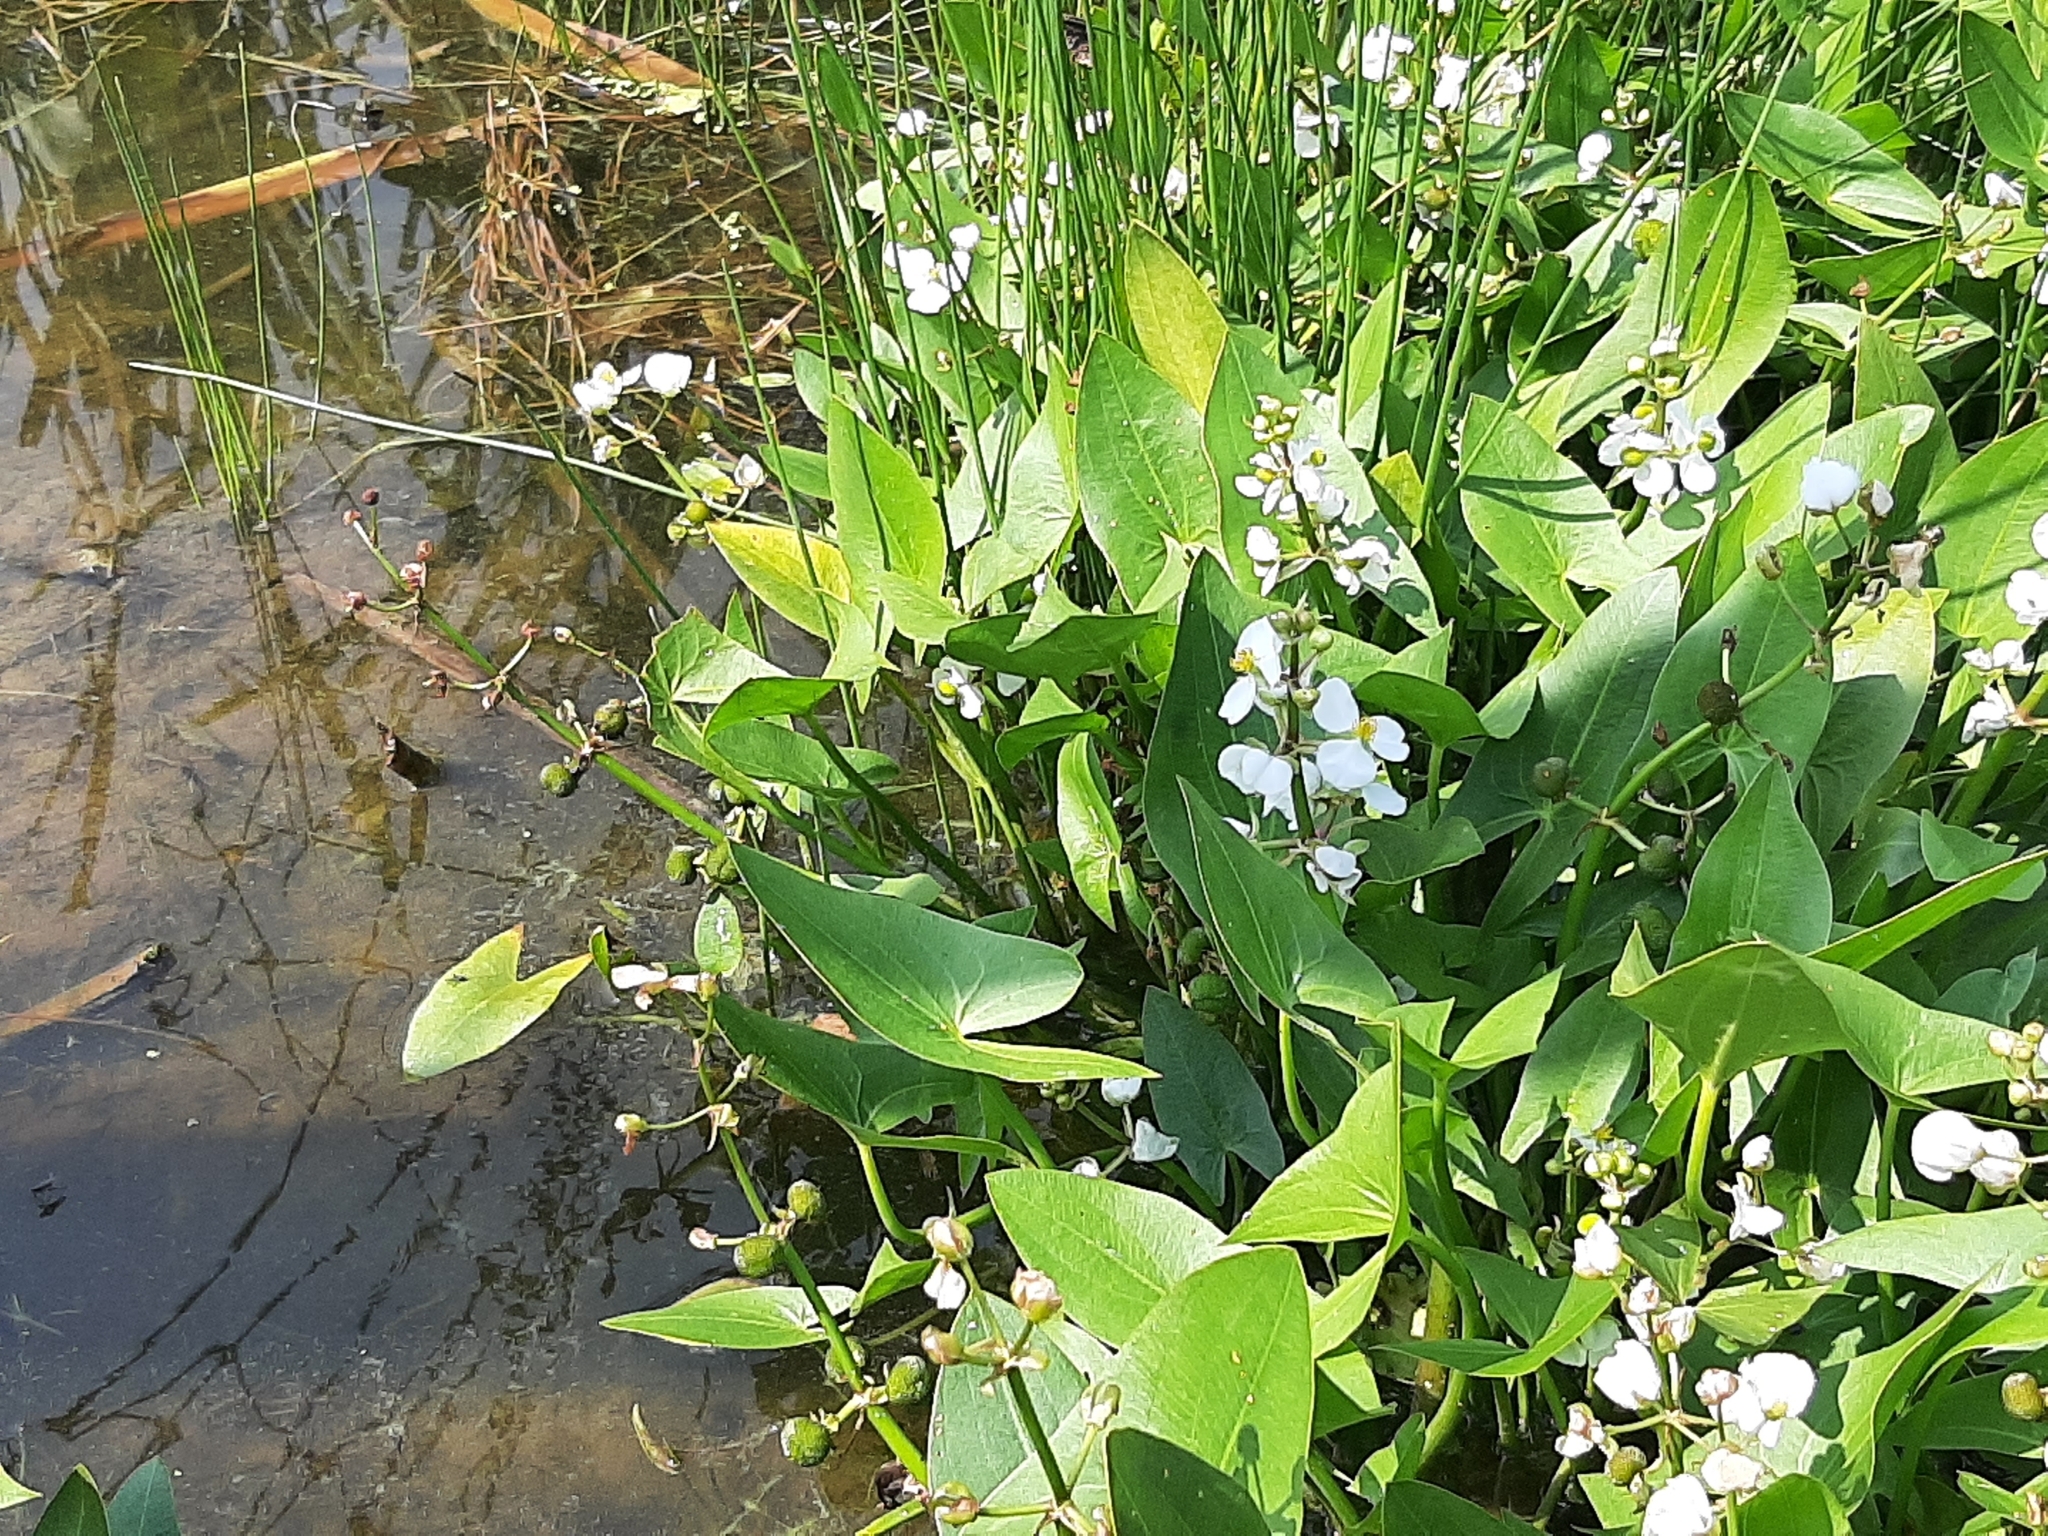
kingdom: Plantae
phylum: Tracheophyta
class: Liliopsida
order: Alismatales
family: Alismataceae
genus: Sagittaria
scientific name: Sagittaria cuneata
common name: Northern arrowhead
